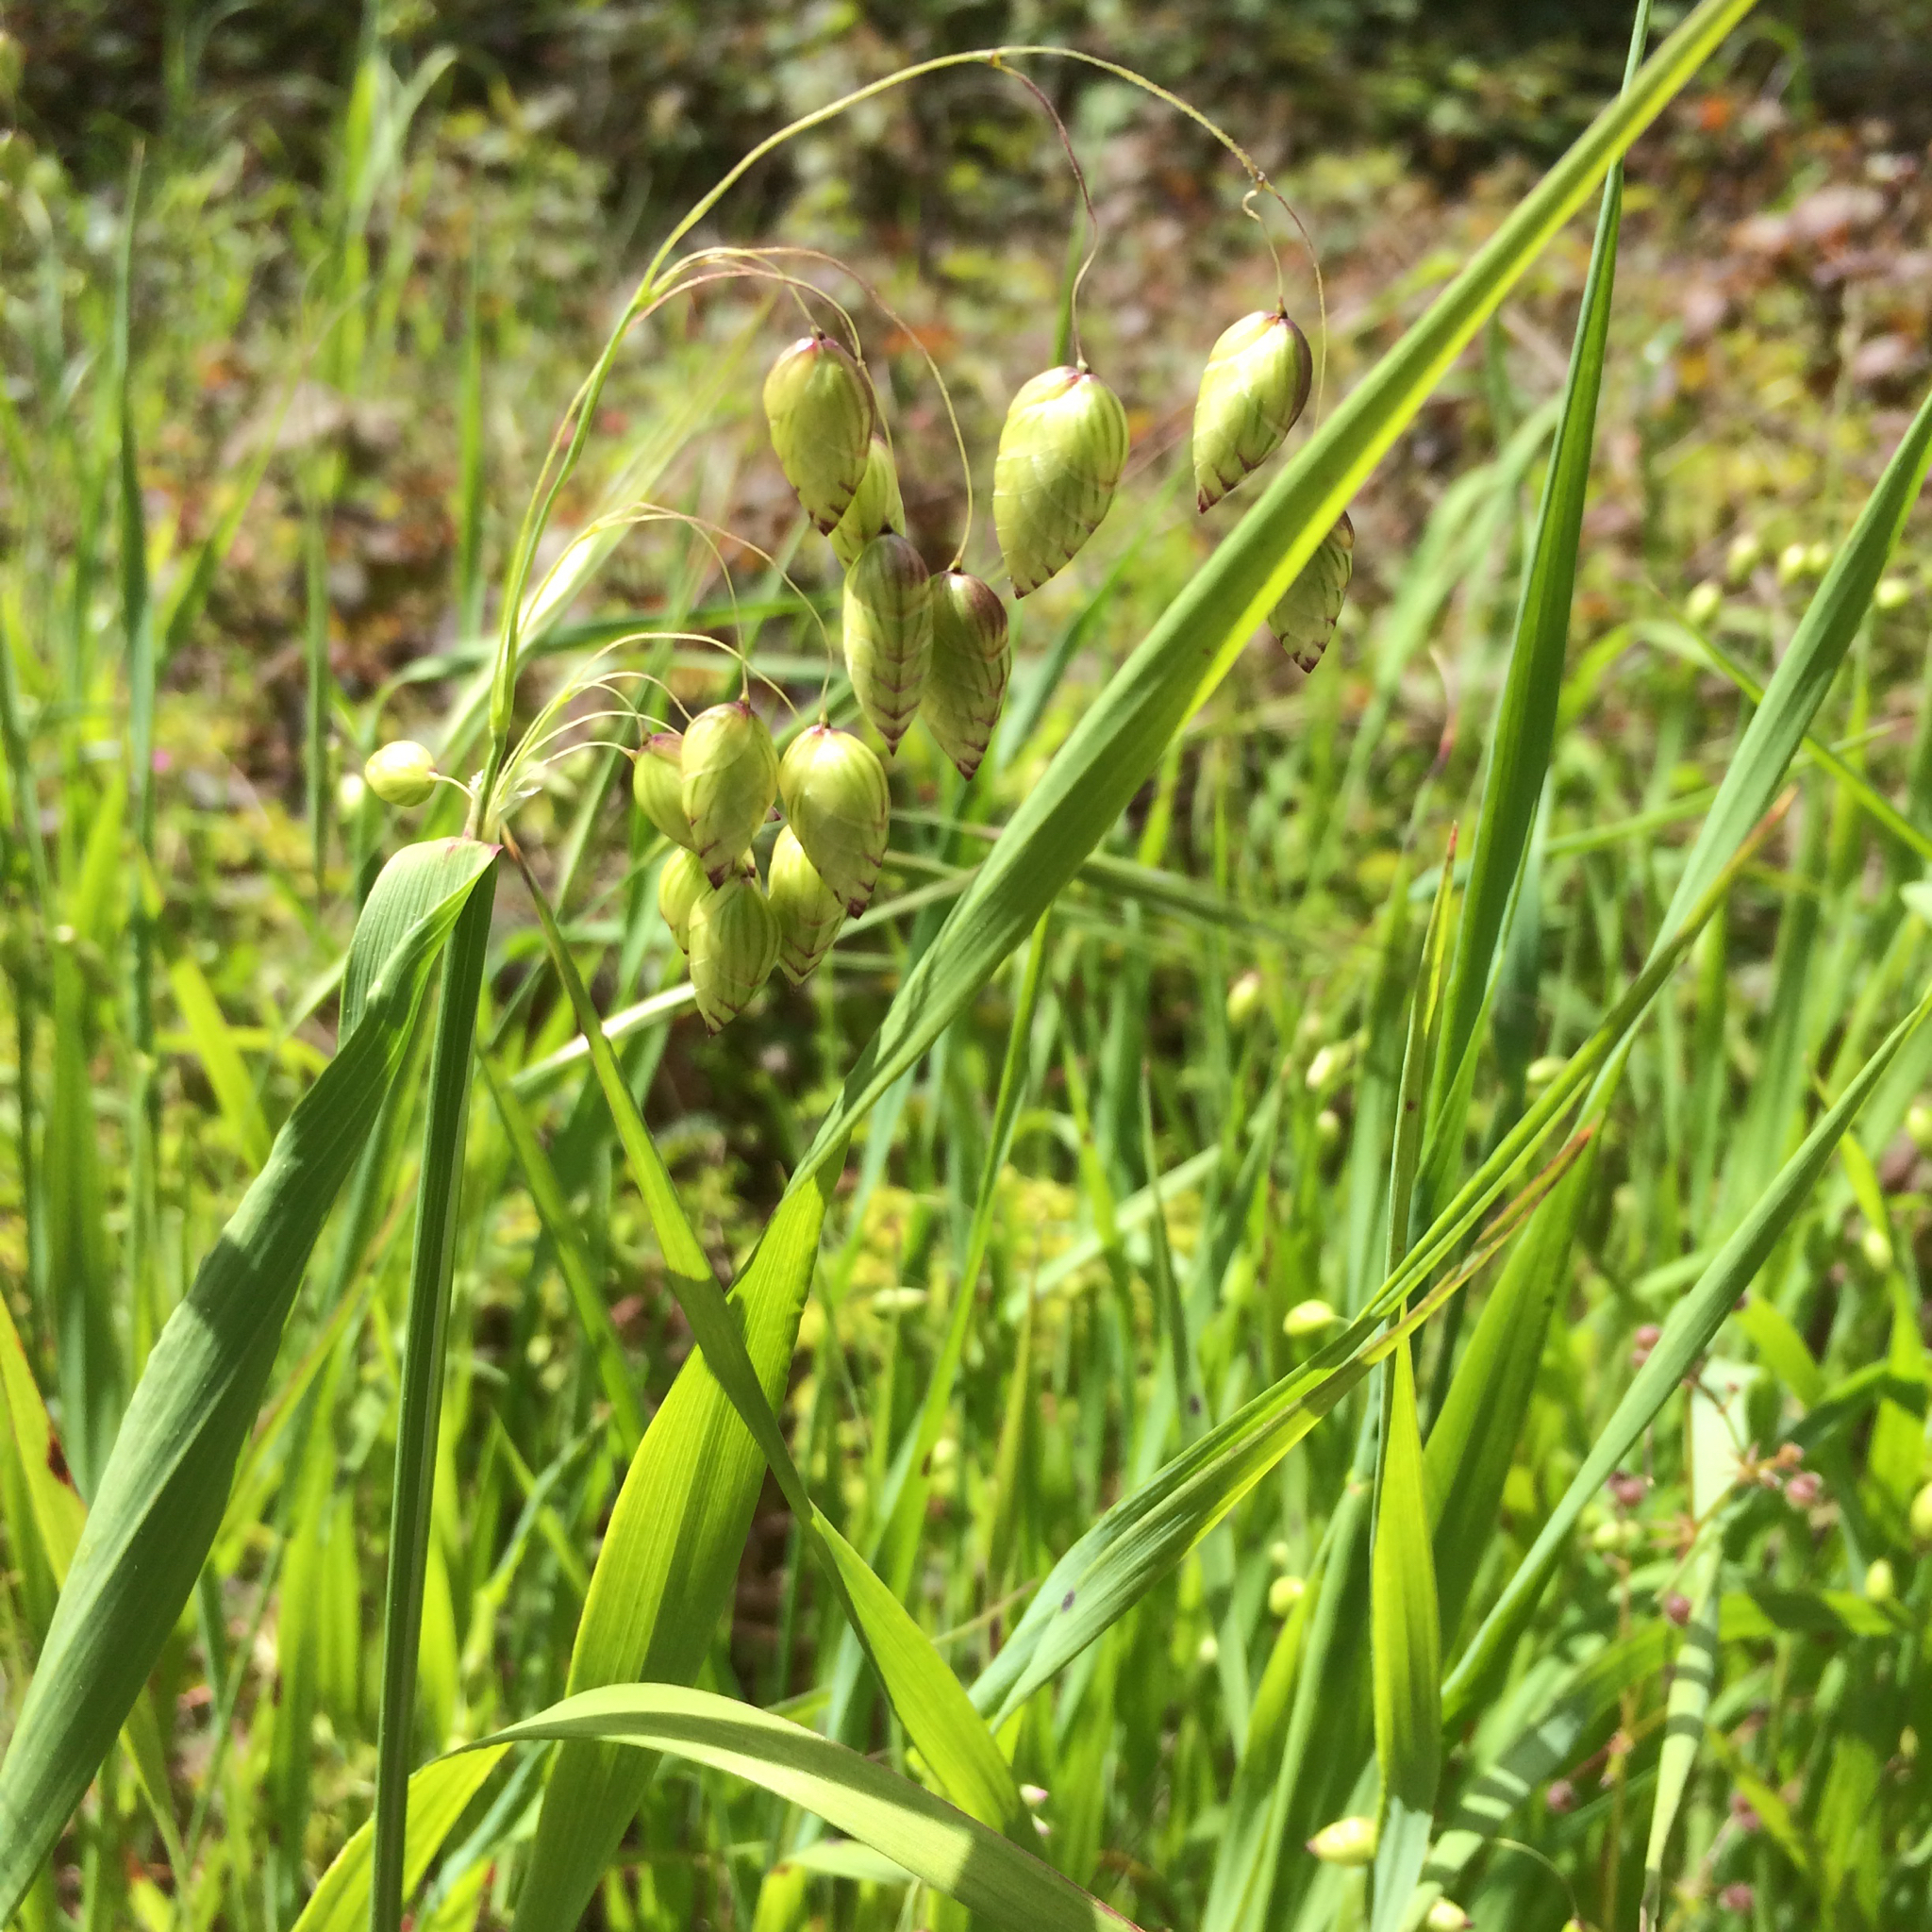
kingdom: Plantae
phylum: Tracheophyta
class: Liliopsida
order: Poales
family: Poaceae
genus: Briza
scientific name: Briza maxima
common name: Big quakinggrass
